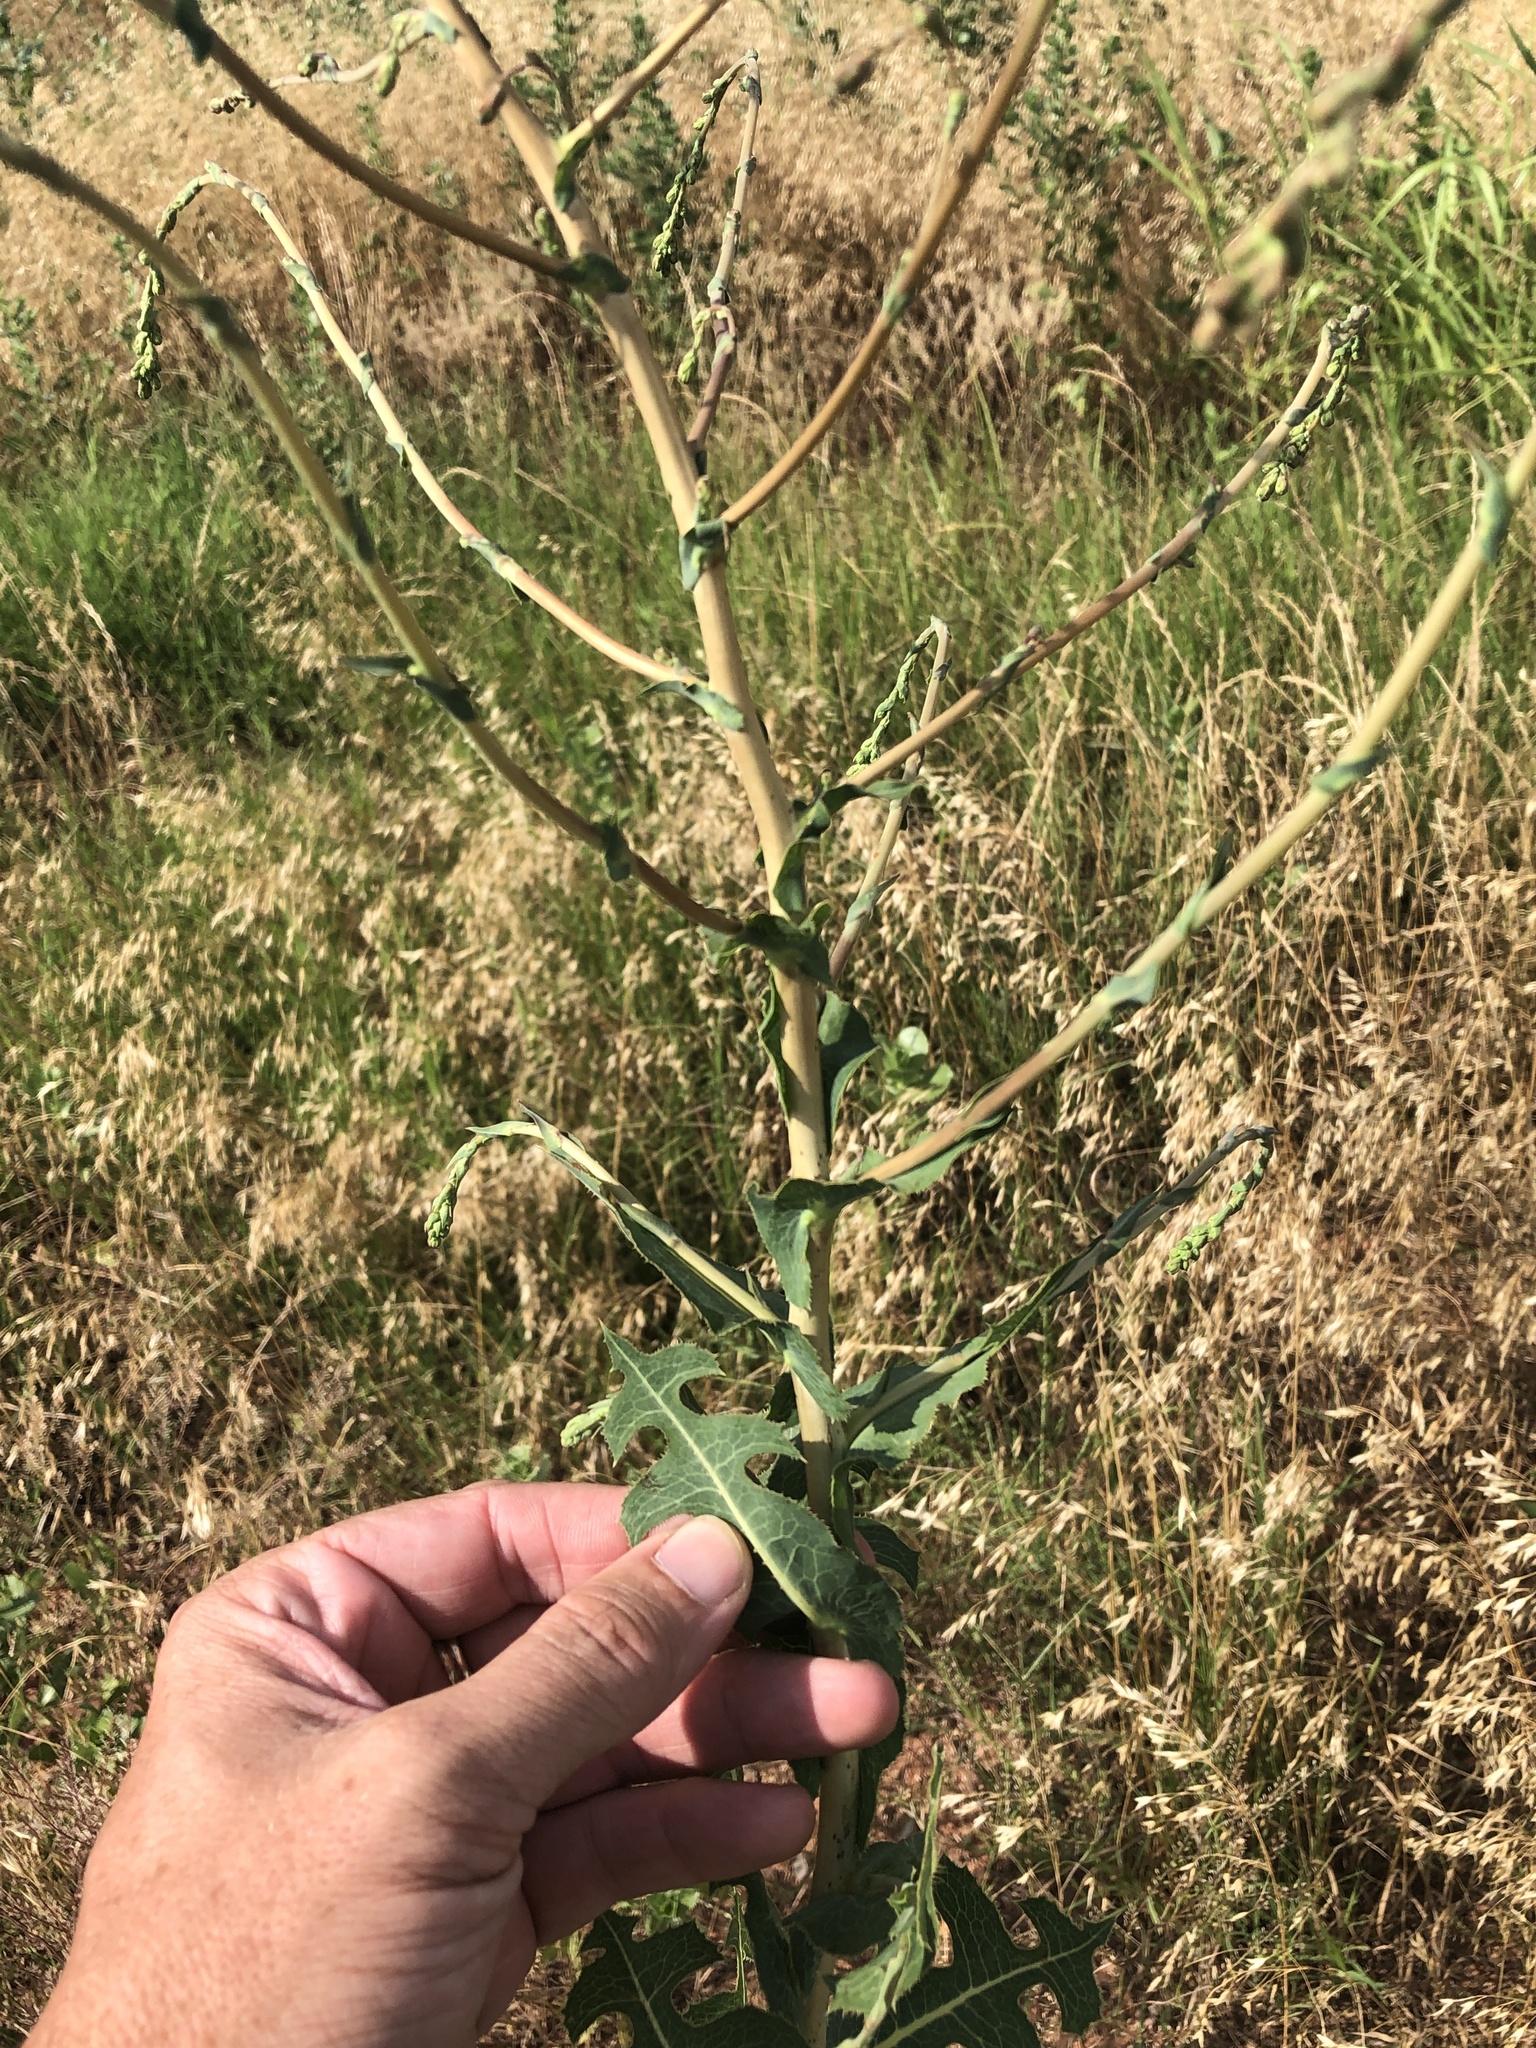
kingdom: Plantae
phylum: Tracheophyta
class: Magnoliopsida
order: Asterales
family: Asteraceae
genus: Lactuca
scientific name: Lactuca serriola
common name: Prickly lettuce
